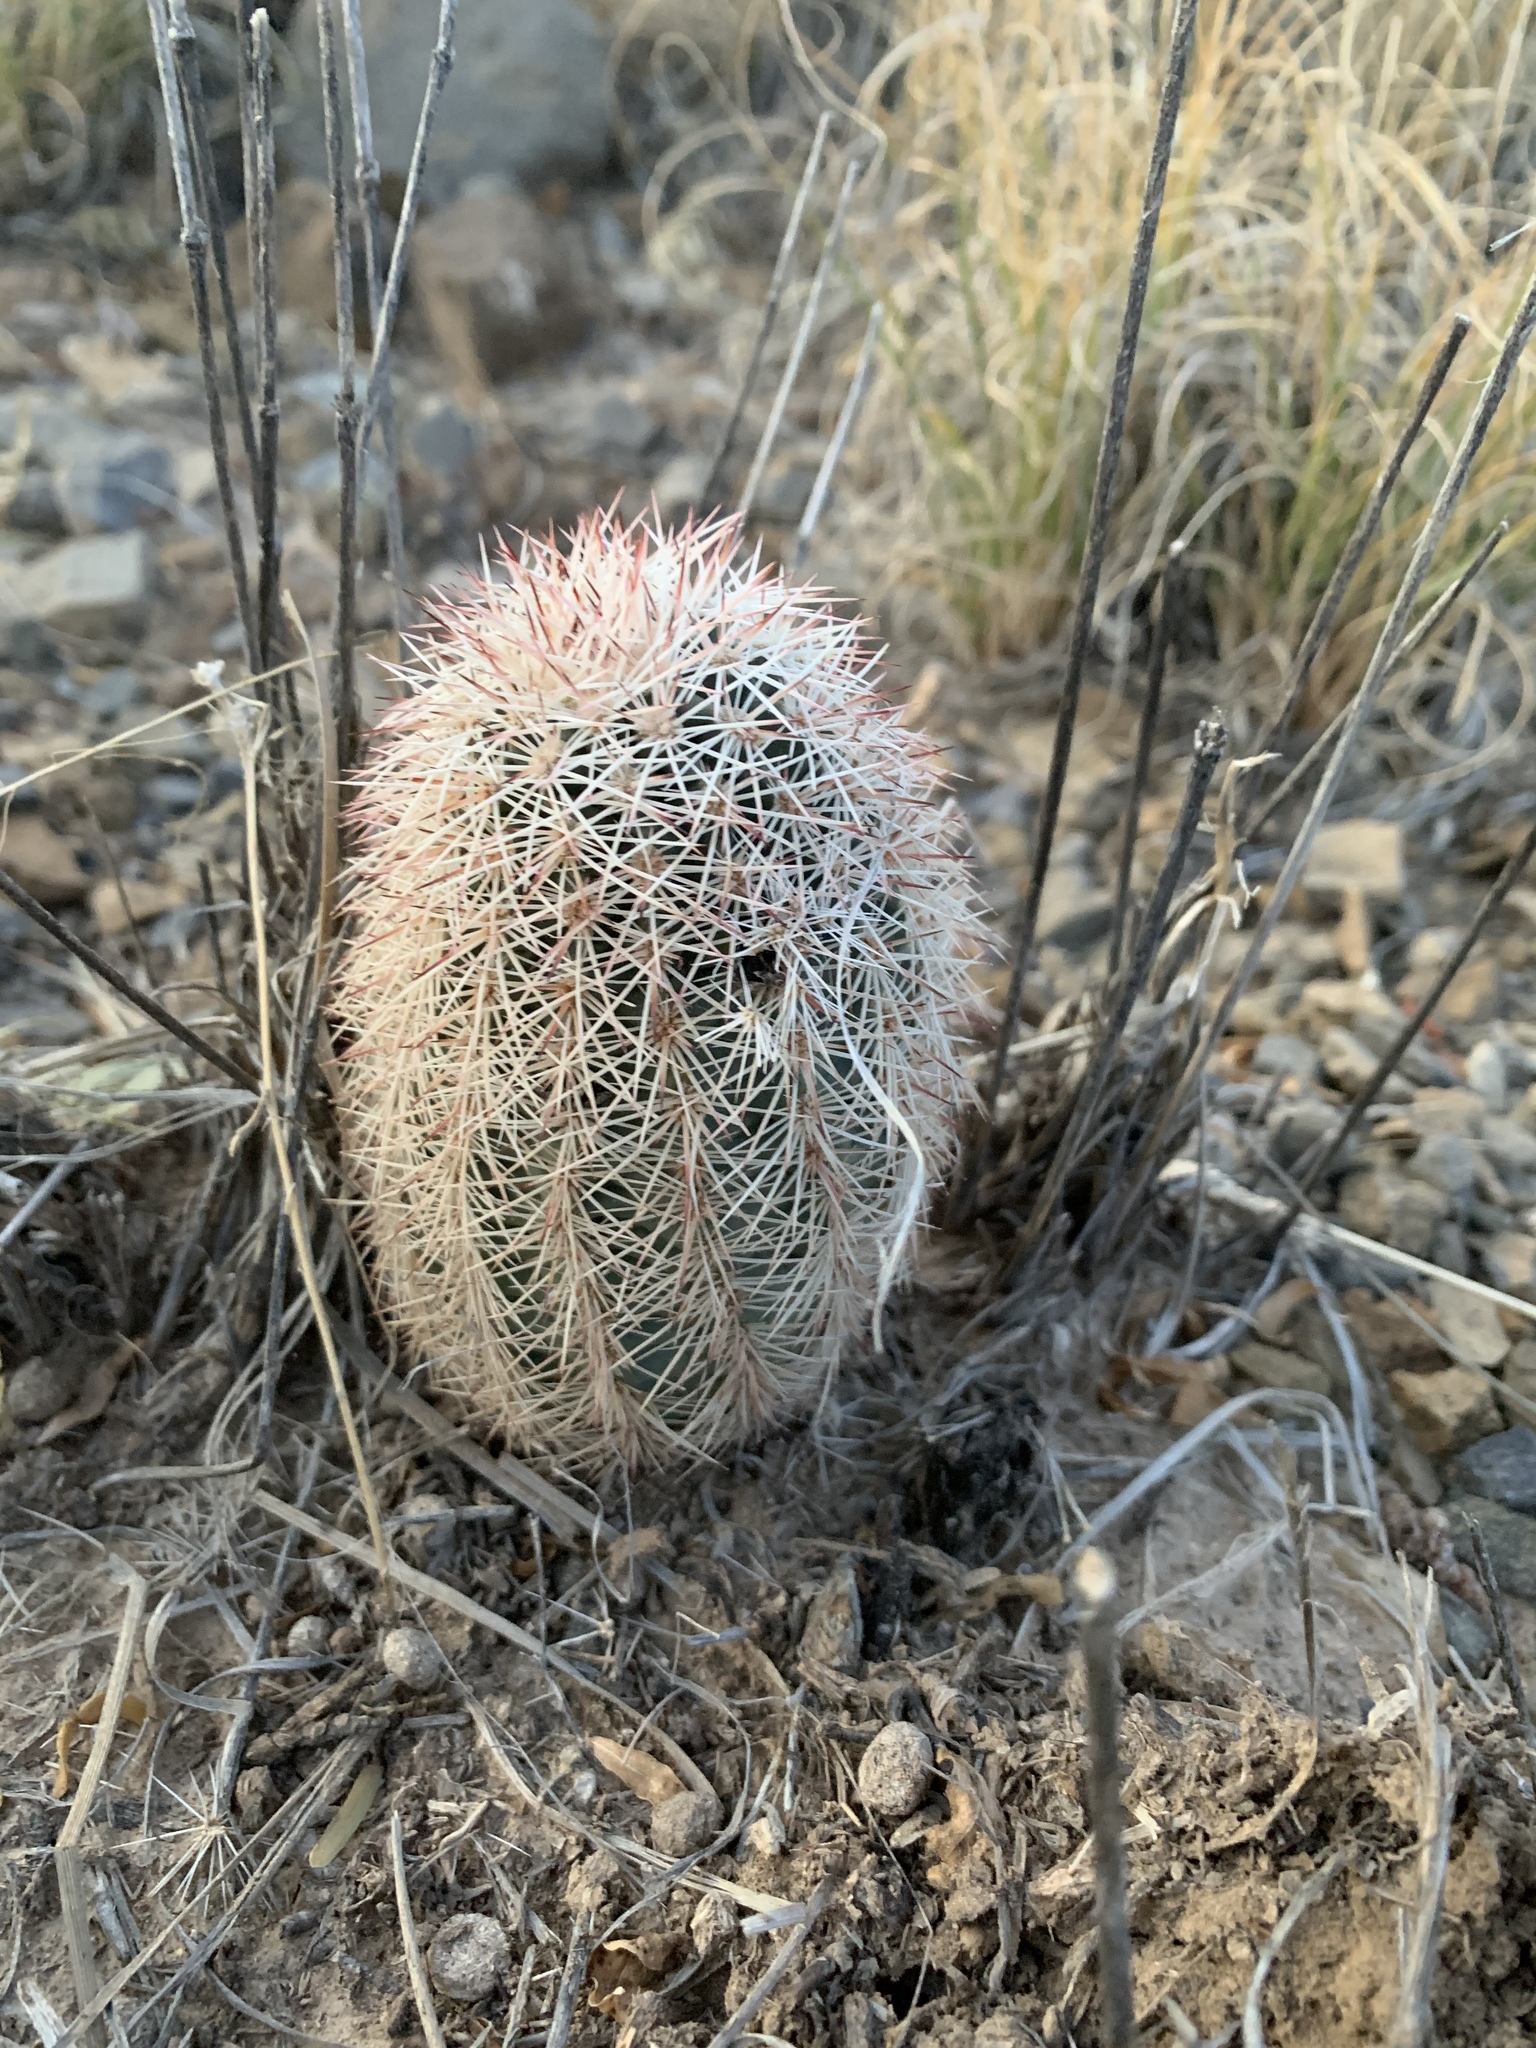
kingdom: Plantae
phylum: Tracheophyta
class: Magnoliopsida
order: Caryophyllales
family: Cactaceae
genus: Echinocereus
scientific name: Echinocereus dasyacanthus
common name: Spiny hedgehog cactus
